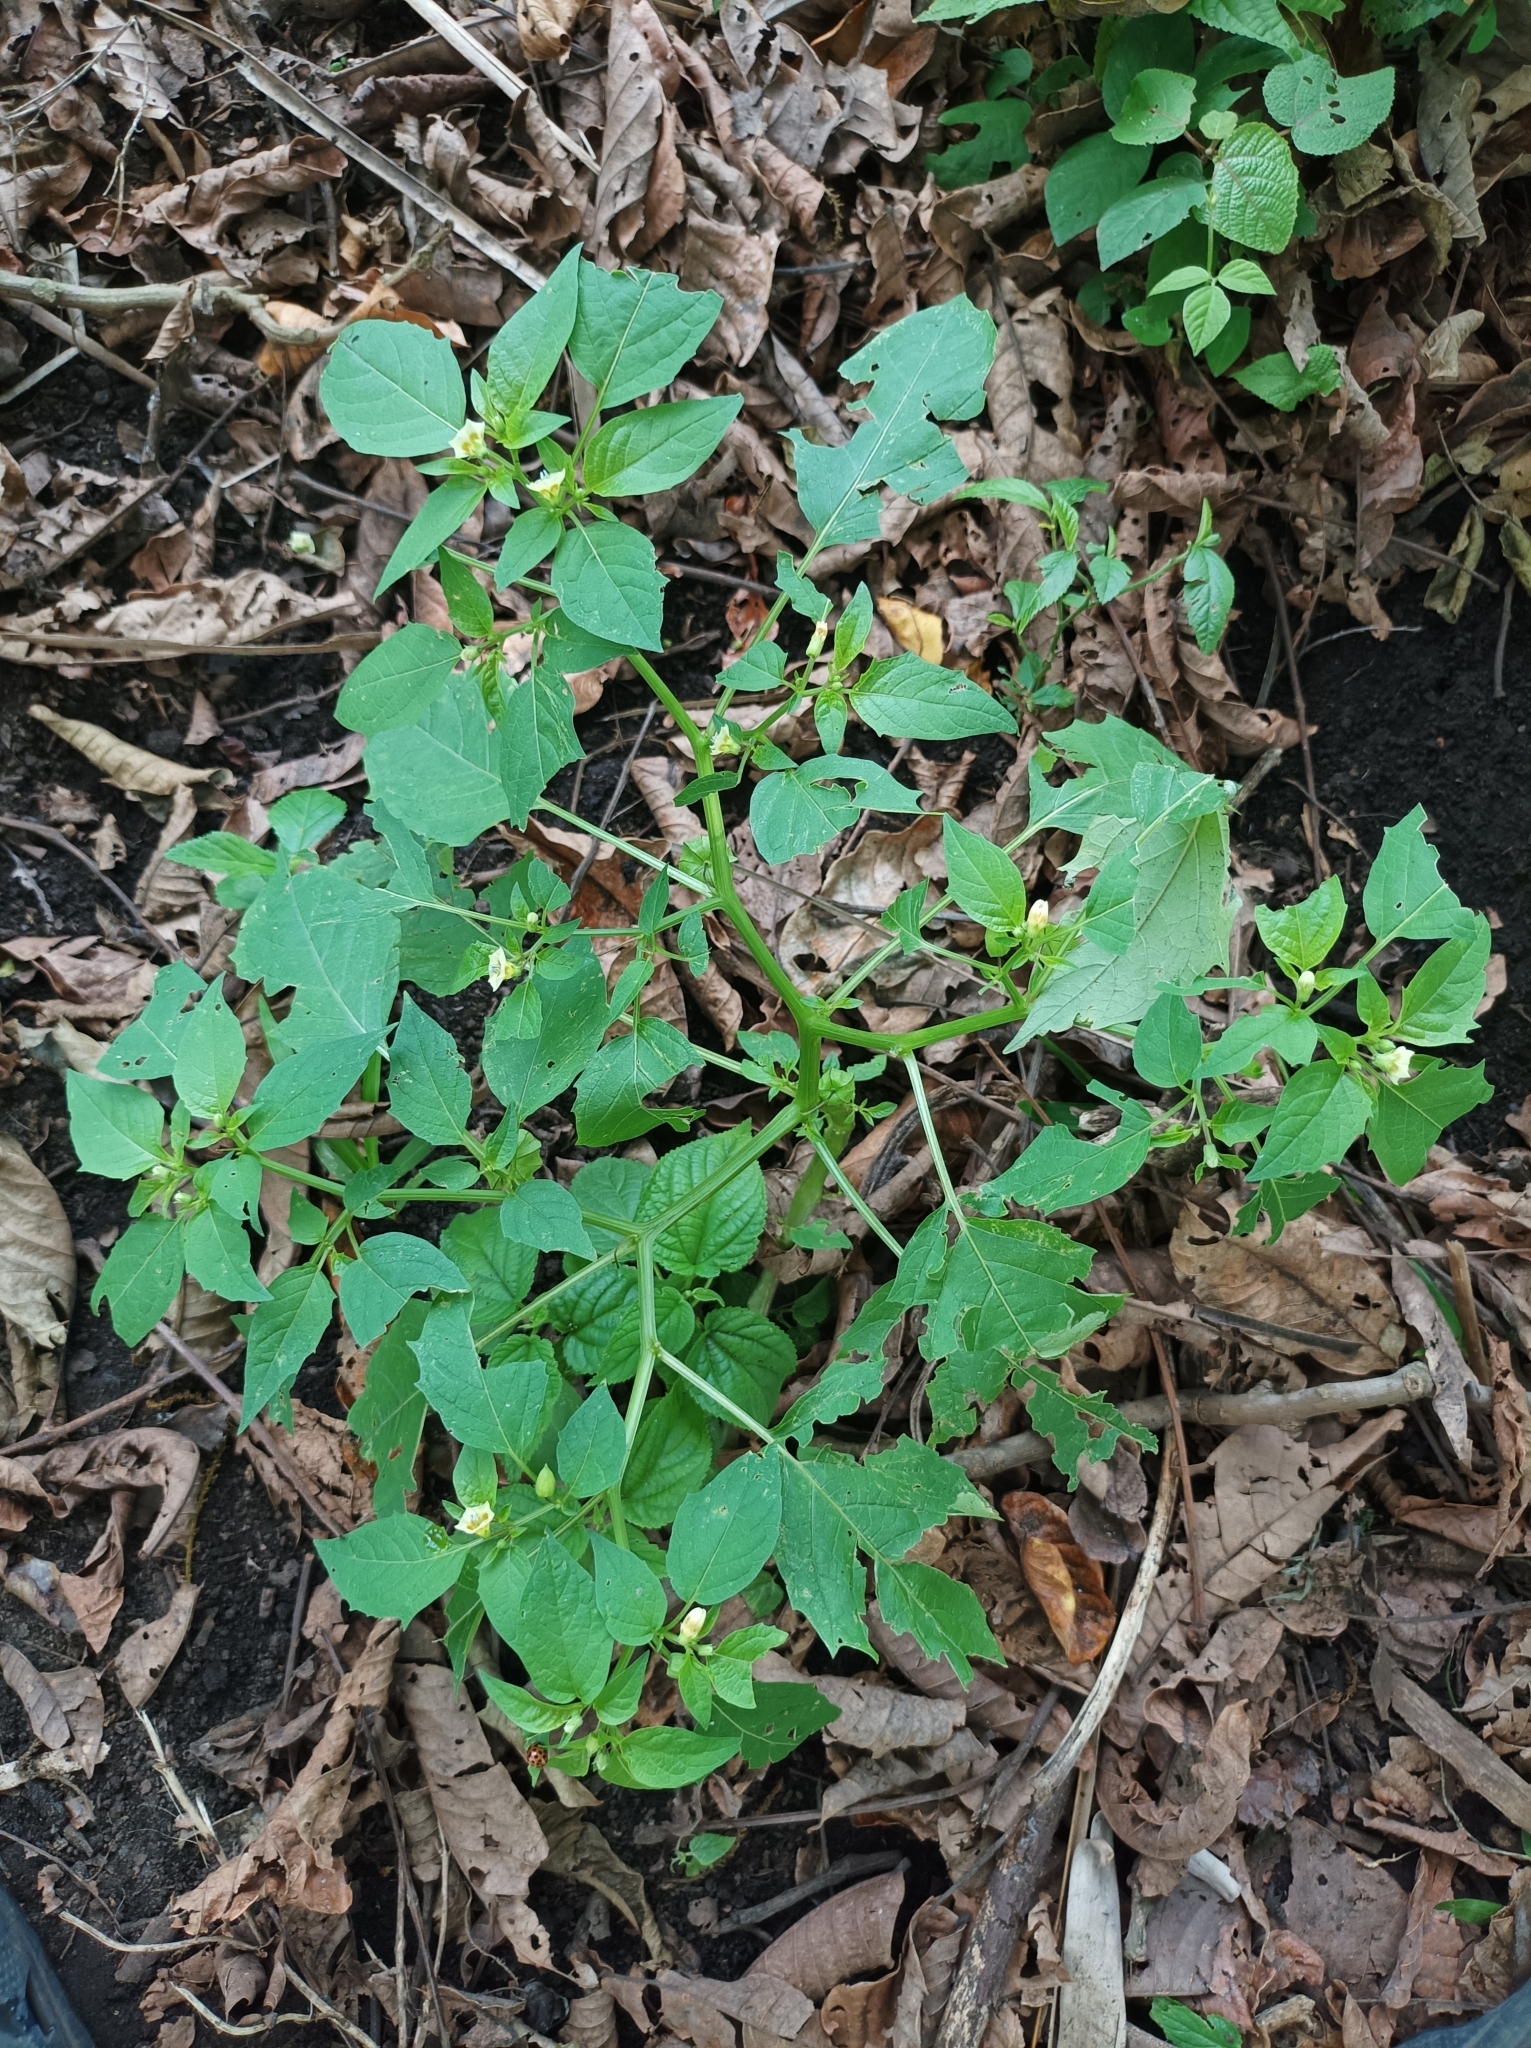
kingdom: Plantae
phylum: Tracheophyta
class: Magnoliopsida
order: Solanales
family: Solanaceae
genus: Physalis
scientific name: Physalis angulata
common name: Angular winter-cherry
